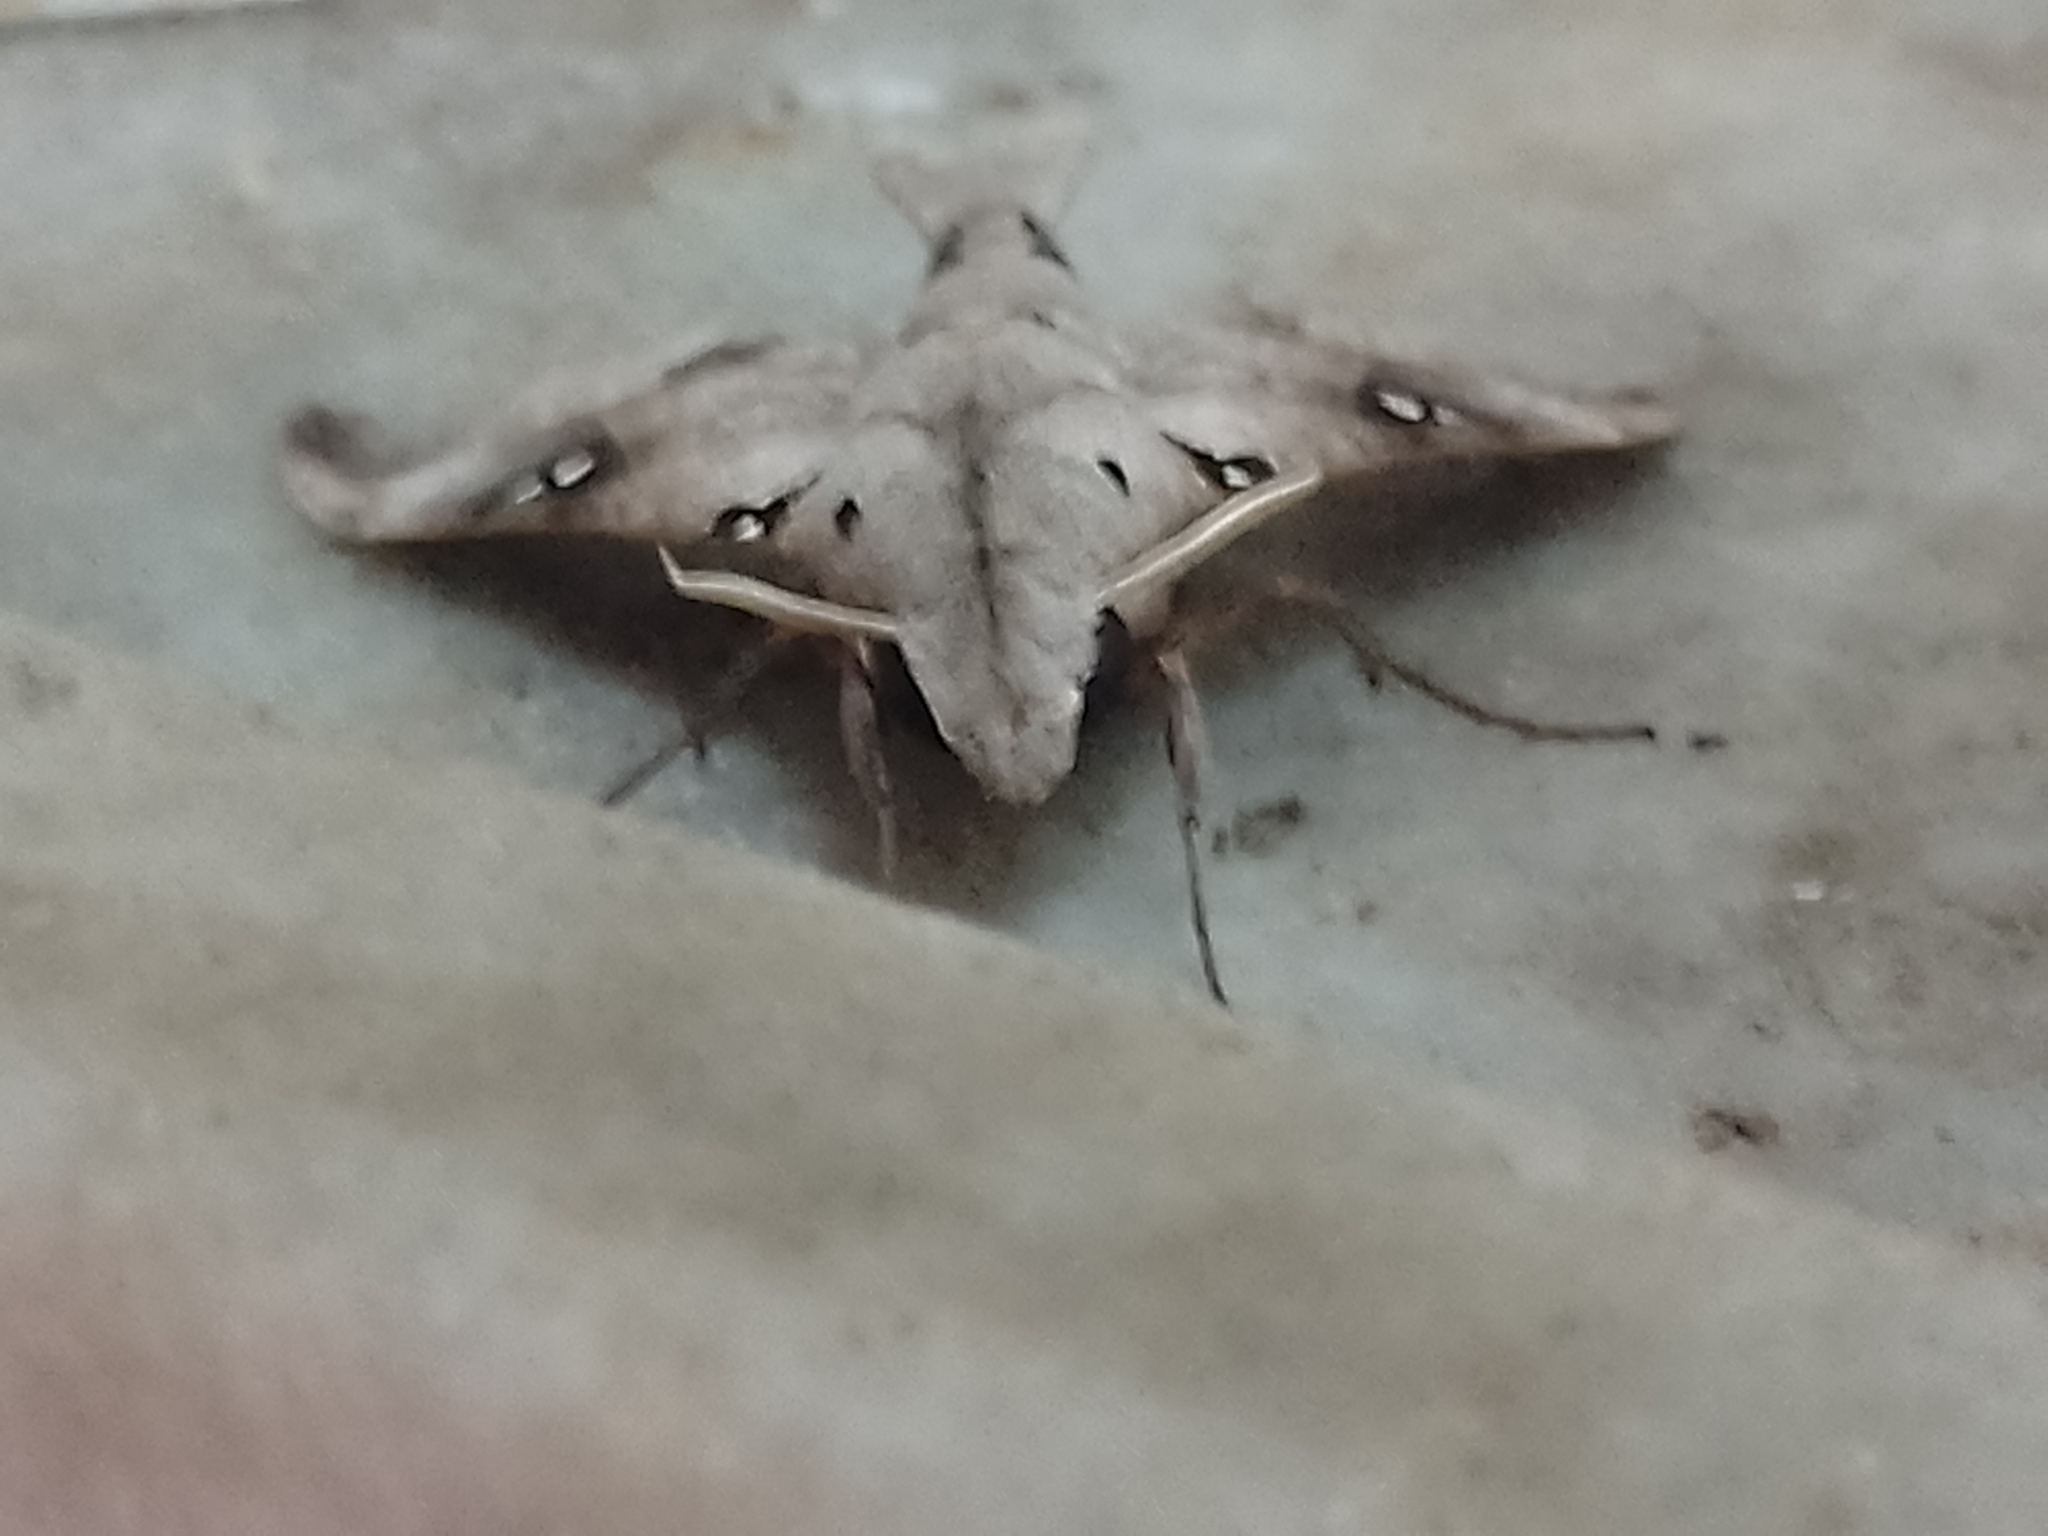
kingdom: Animalia
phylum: Arthropoda
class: Insecta
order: Lepidoptera
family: Sphingidae
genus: Madoryx
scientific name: Madoryx oiclus
